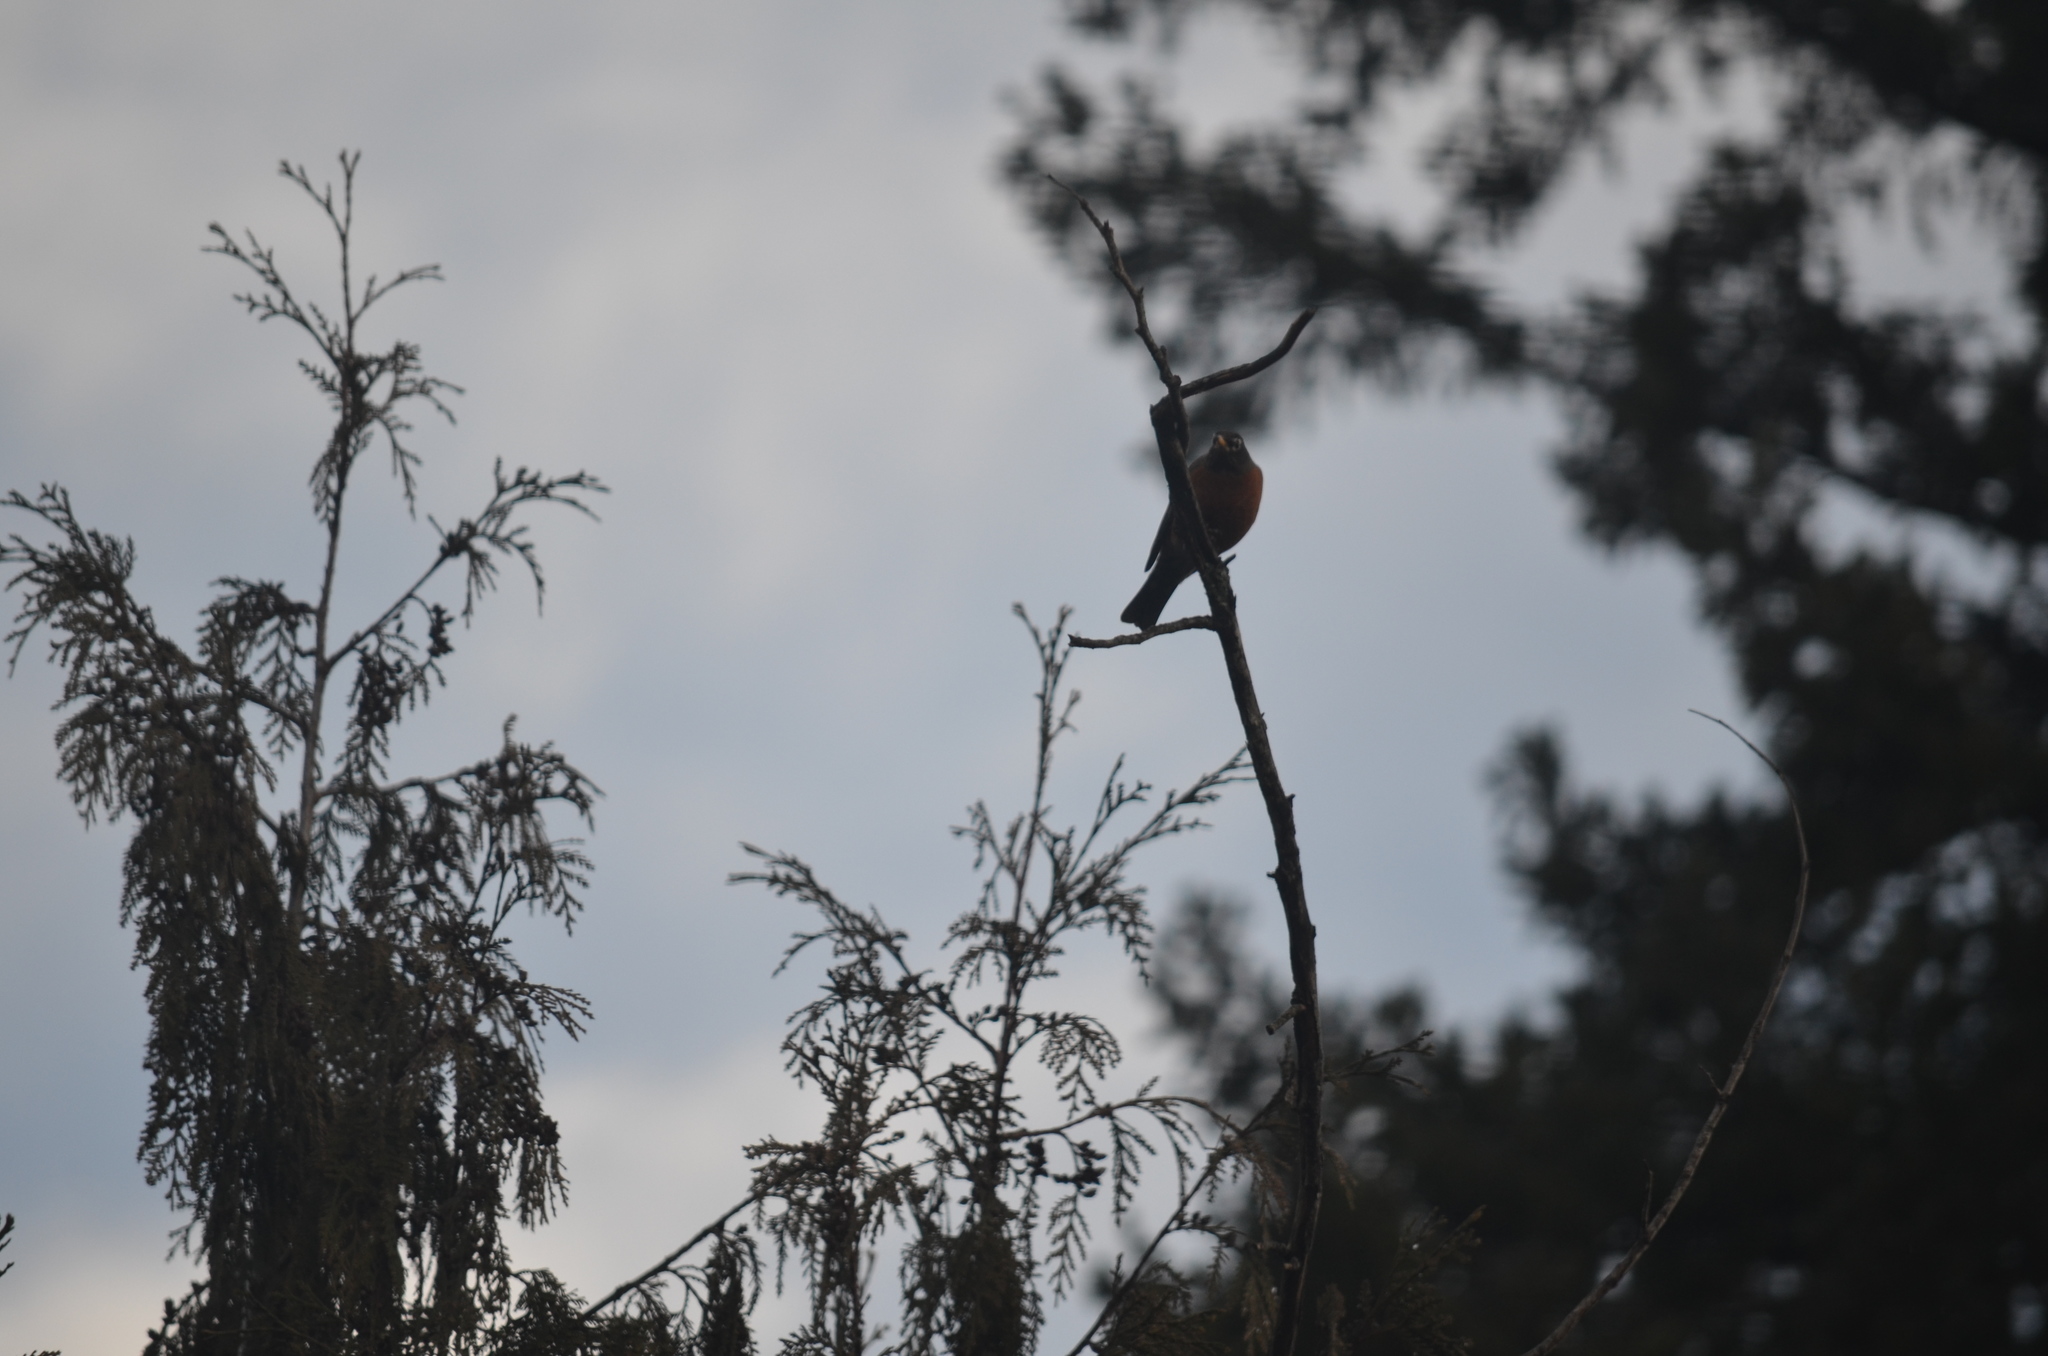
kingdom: Animalia
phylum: Chordata
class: Aves
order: Passeriformes
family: Turdidae
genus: Turdus
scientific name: Turdus migratorius
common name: American robin
